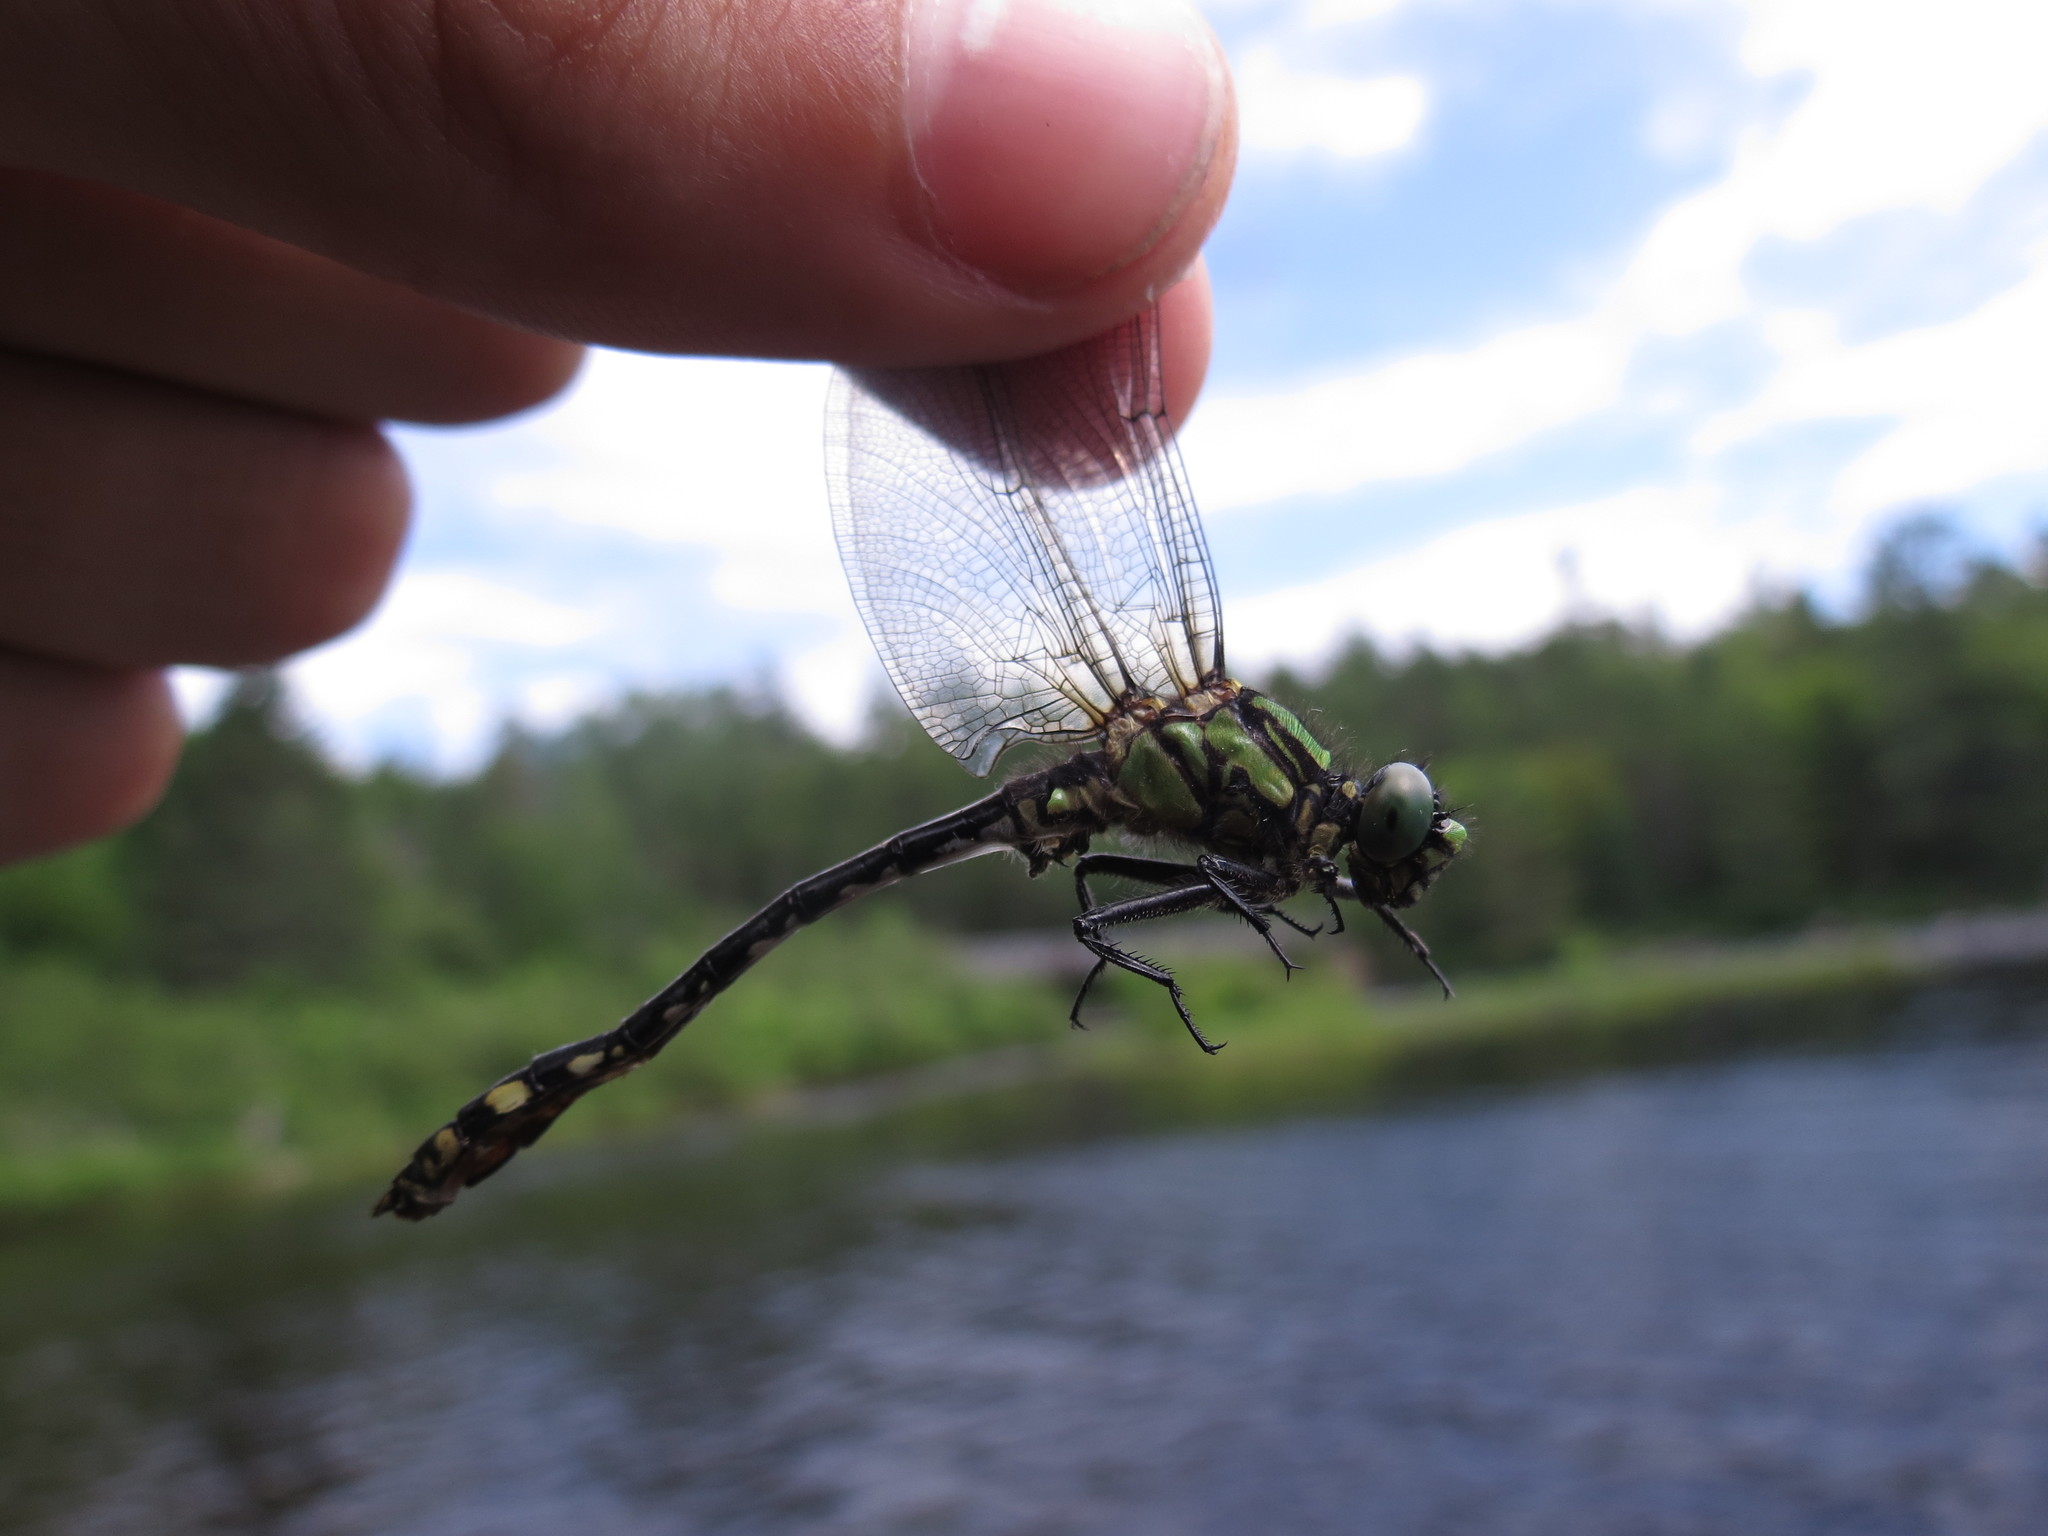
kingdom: Animalia
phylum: Arthropoda
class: Insecta
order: Odonata
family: Gomphidae
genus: Ophiogomphus
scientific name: Ophiogomphus anomalus
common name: Extra-striped snaketail
